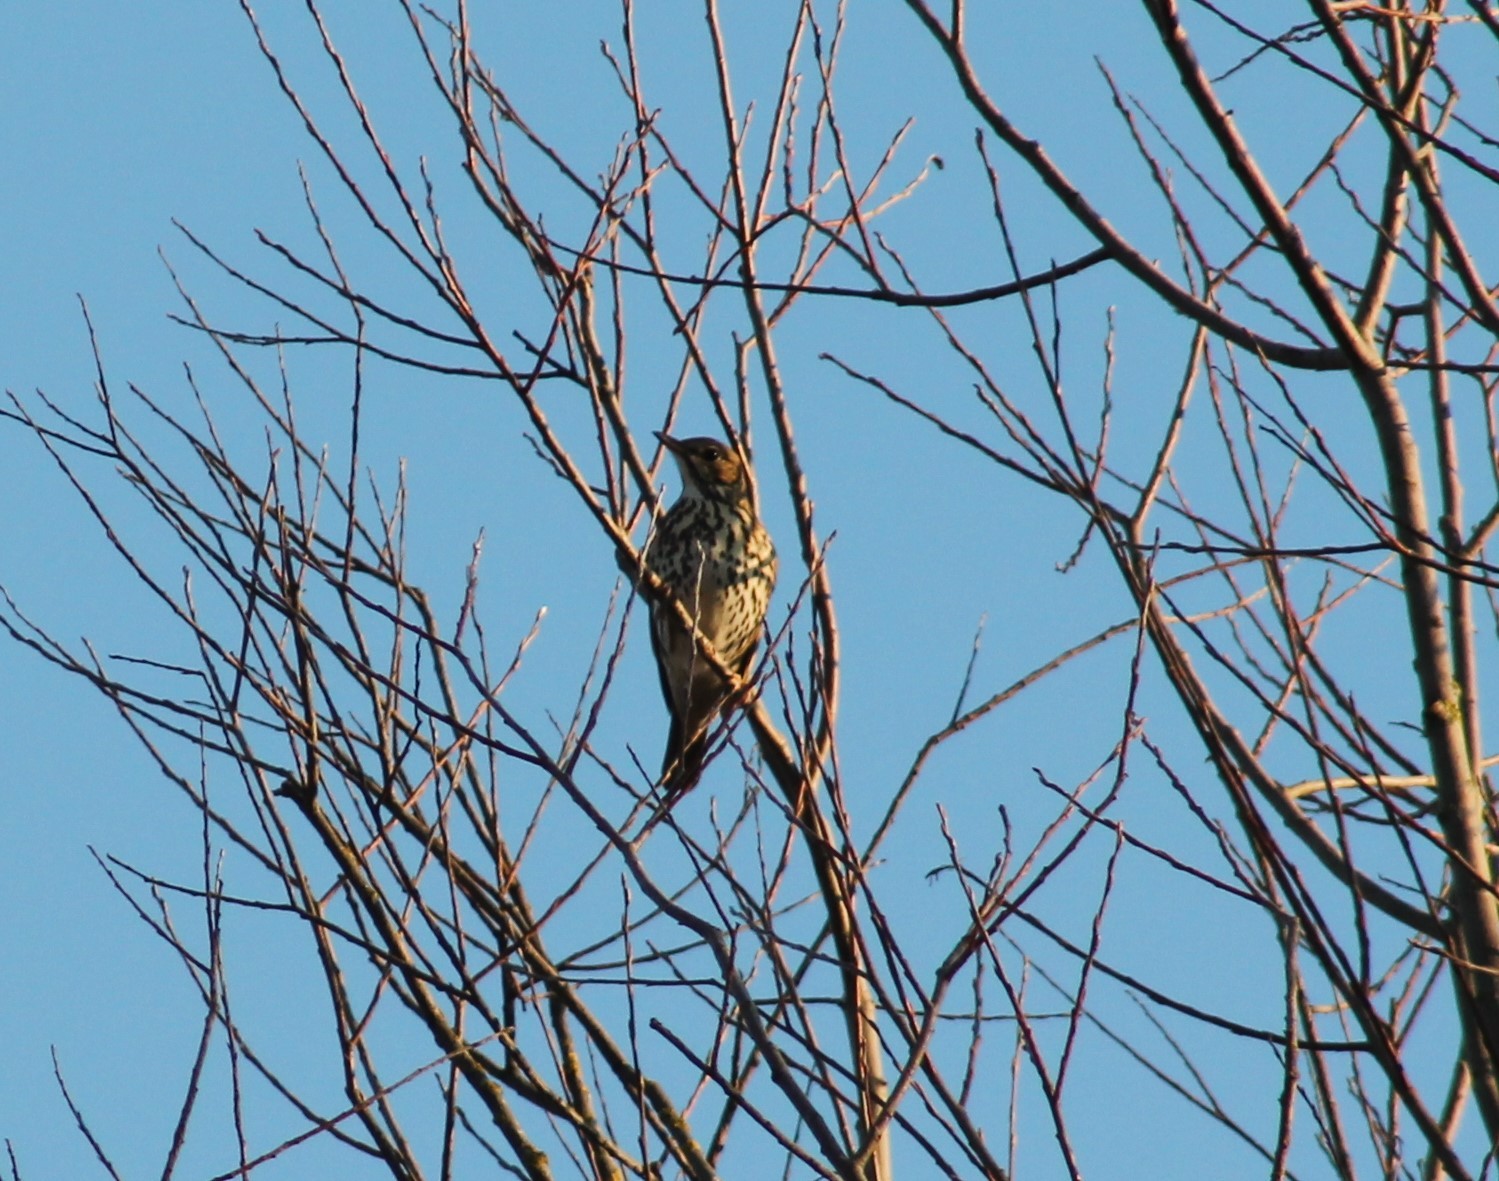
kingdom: Animalia
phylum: Chordata
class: Aves
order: Passeriformes
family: Turdidae
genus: Turdus
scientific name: Turdus philomelos
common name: Song thrush
